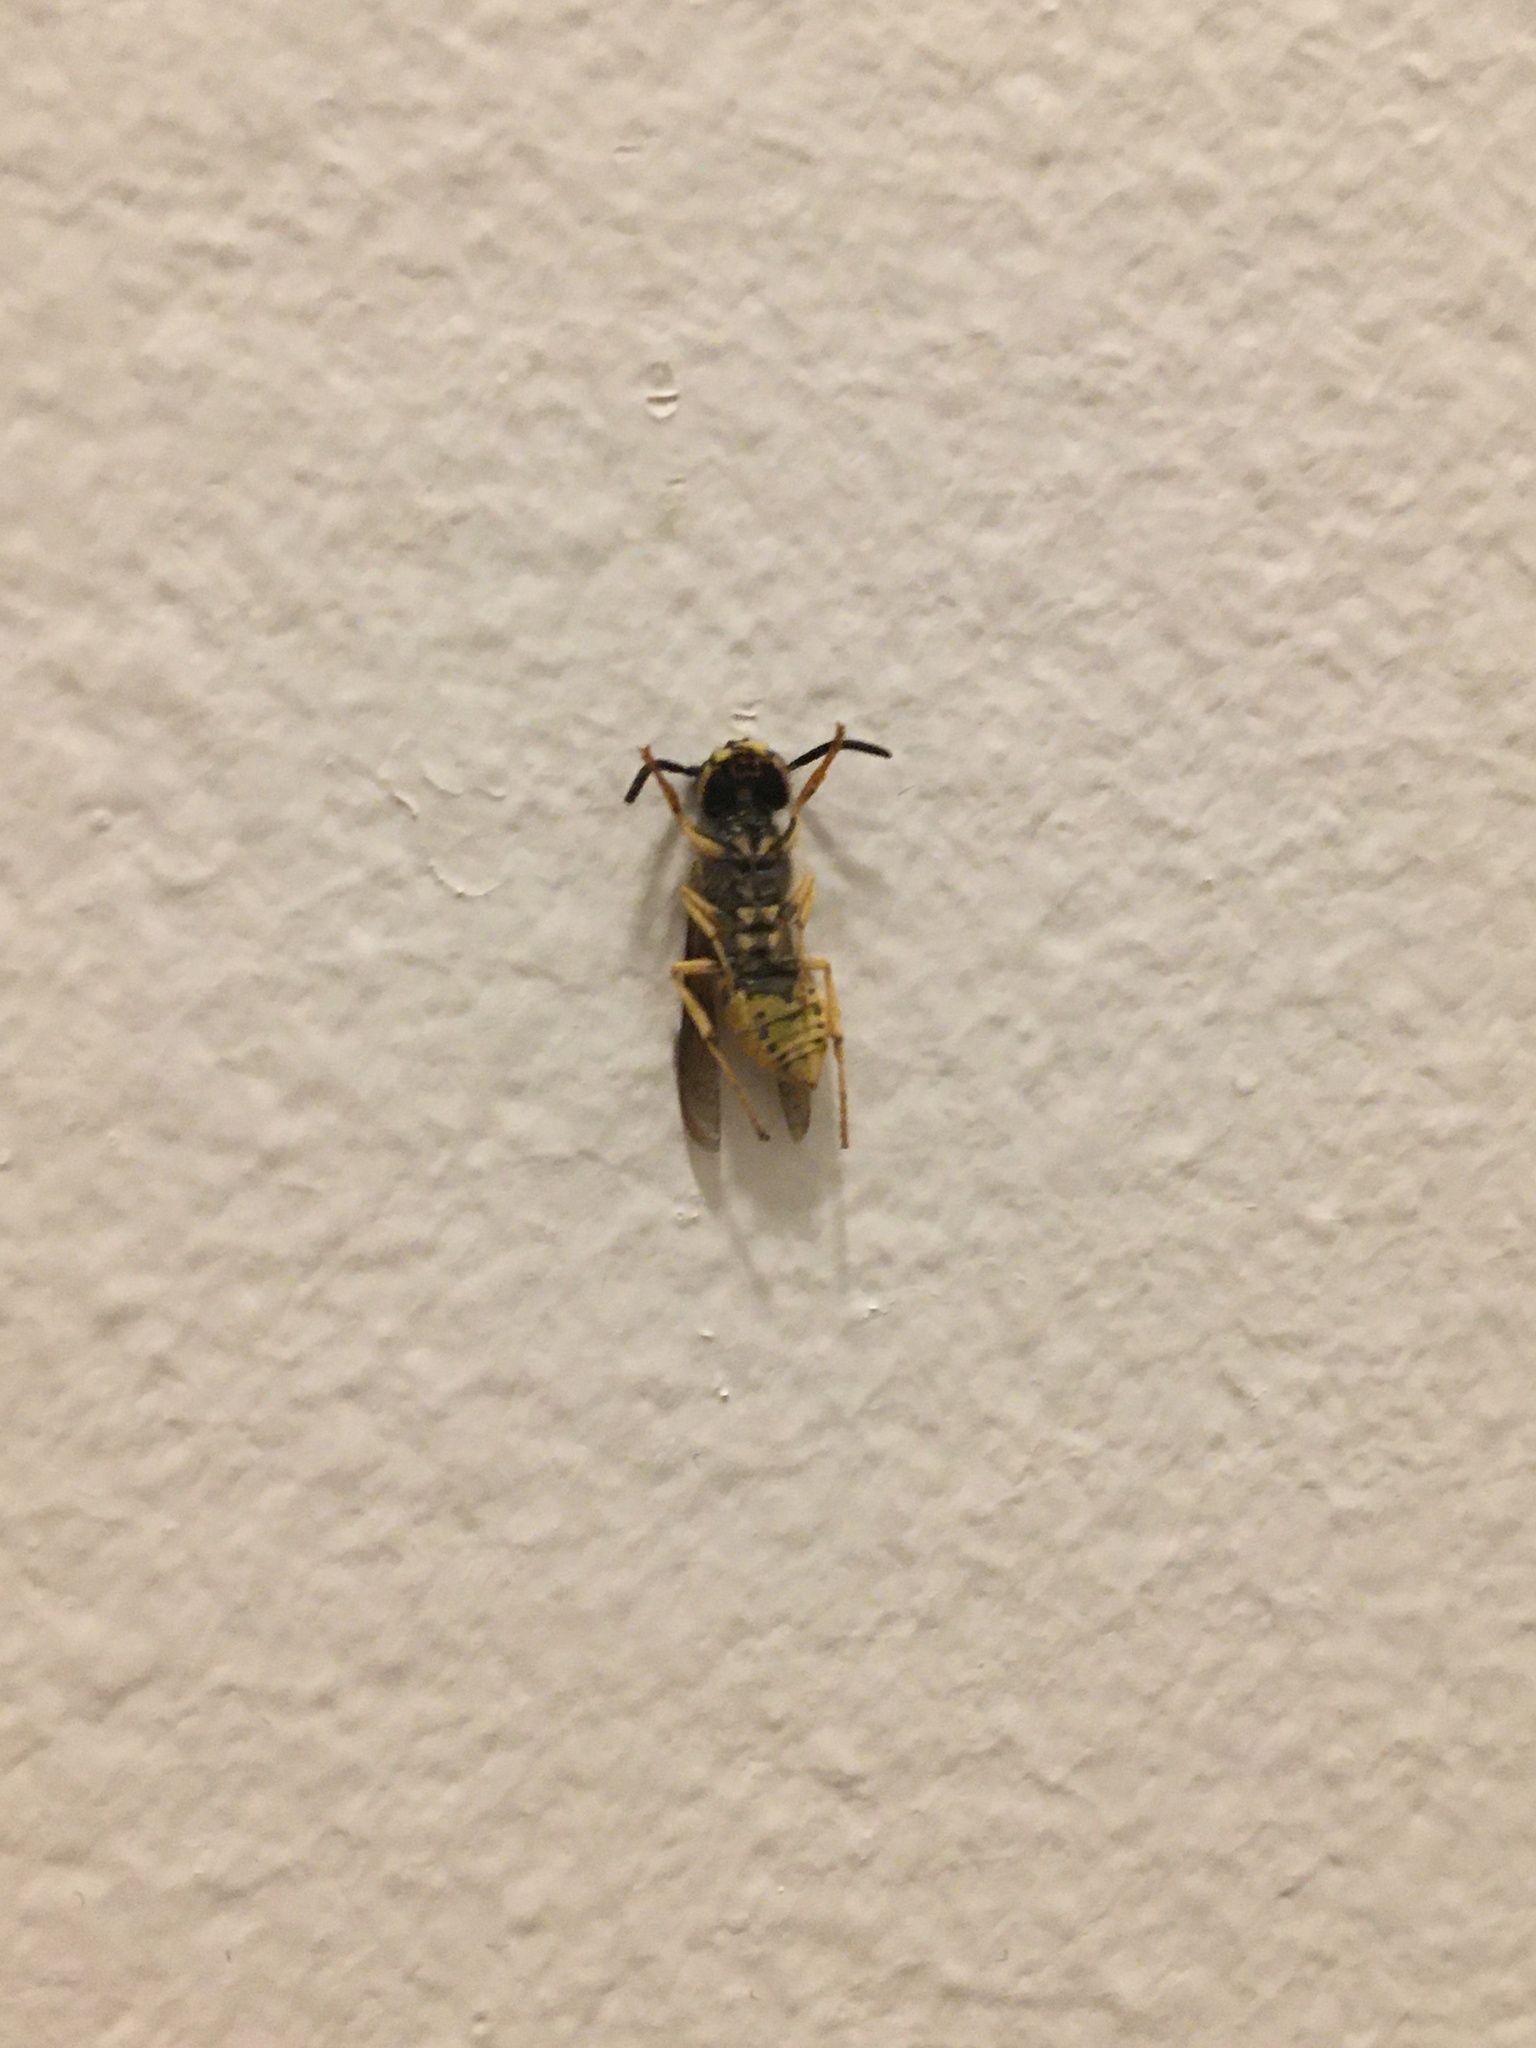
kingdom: Animalia
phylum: Arthropoda
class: Insecta
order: Hymenoptera
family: Vespidae
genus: Vespula
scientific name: Vespula flavopilosa
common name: Downy yellowjacket
